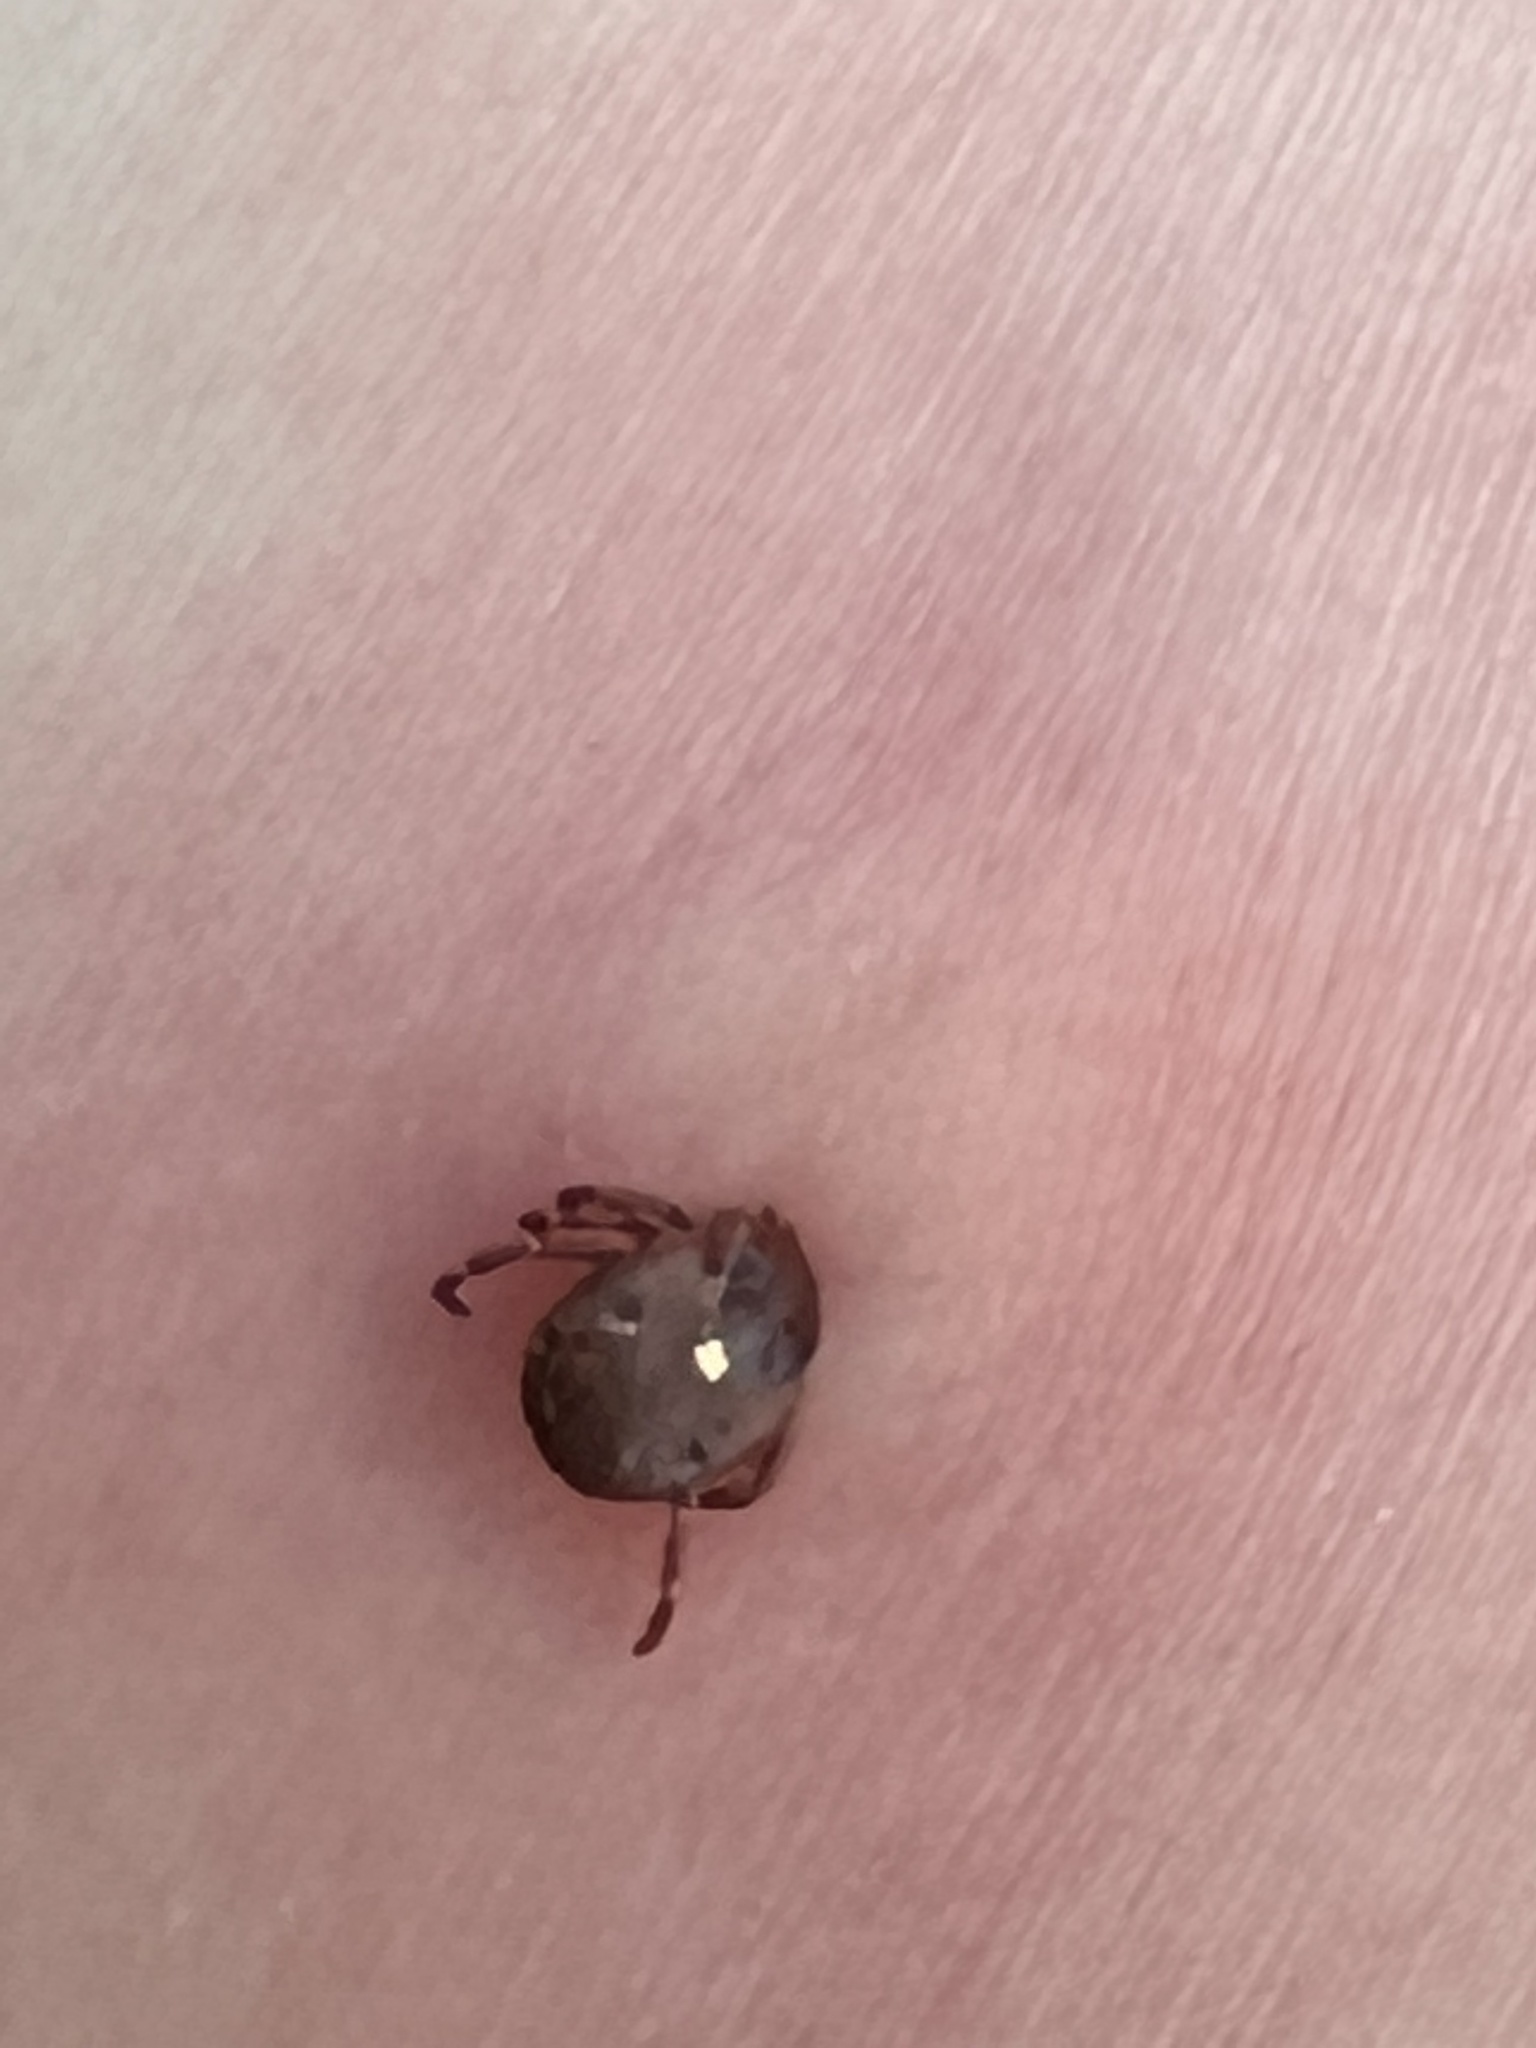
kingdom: Animalia
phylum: Arthropoda
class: Arachnida
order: Ixodida
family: Ixodidae
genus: Amblyomma
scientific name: Amblyomma americanum
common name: Lone star tick
